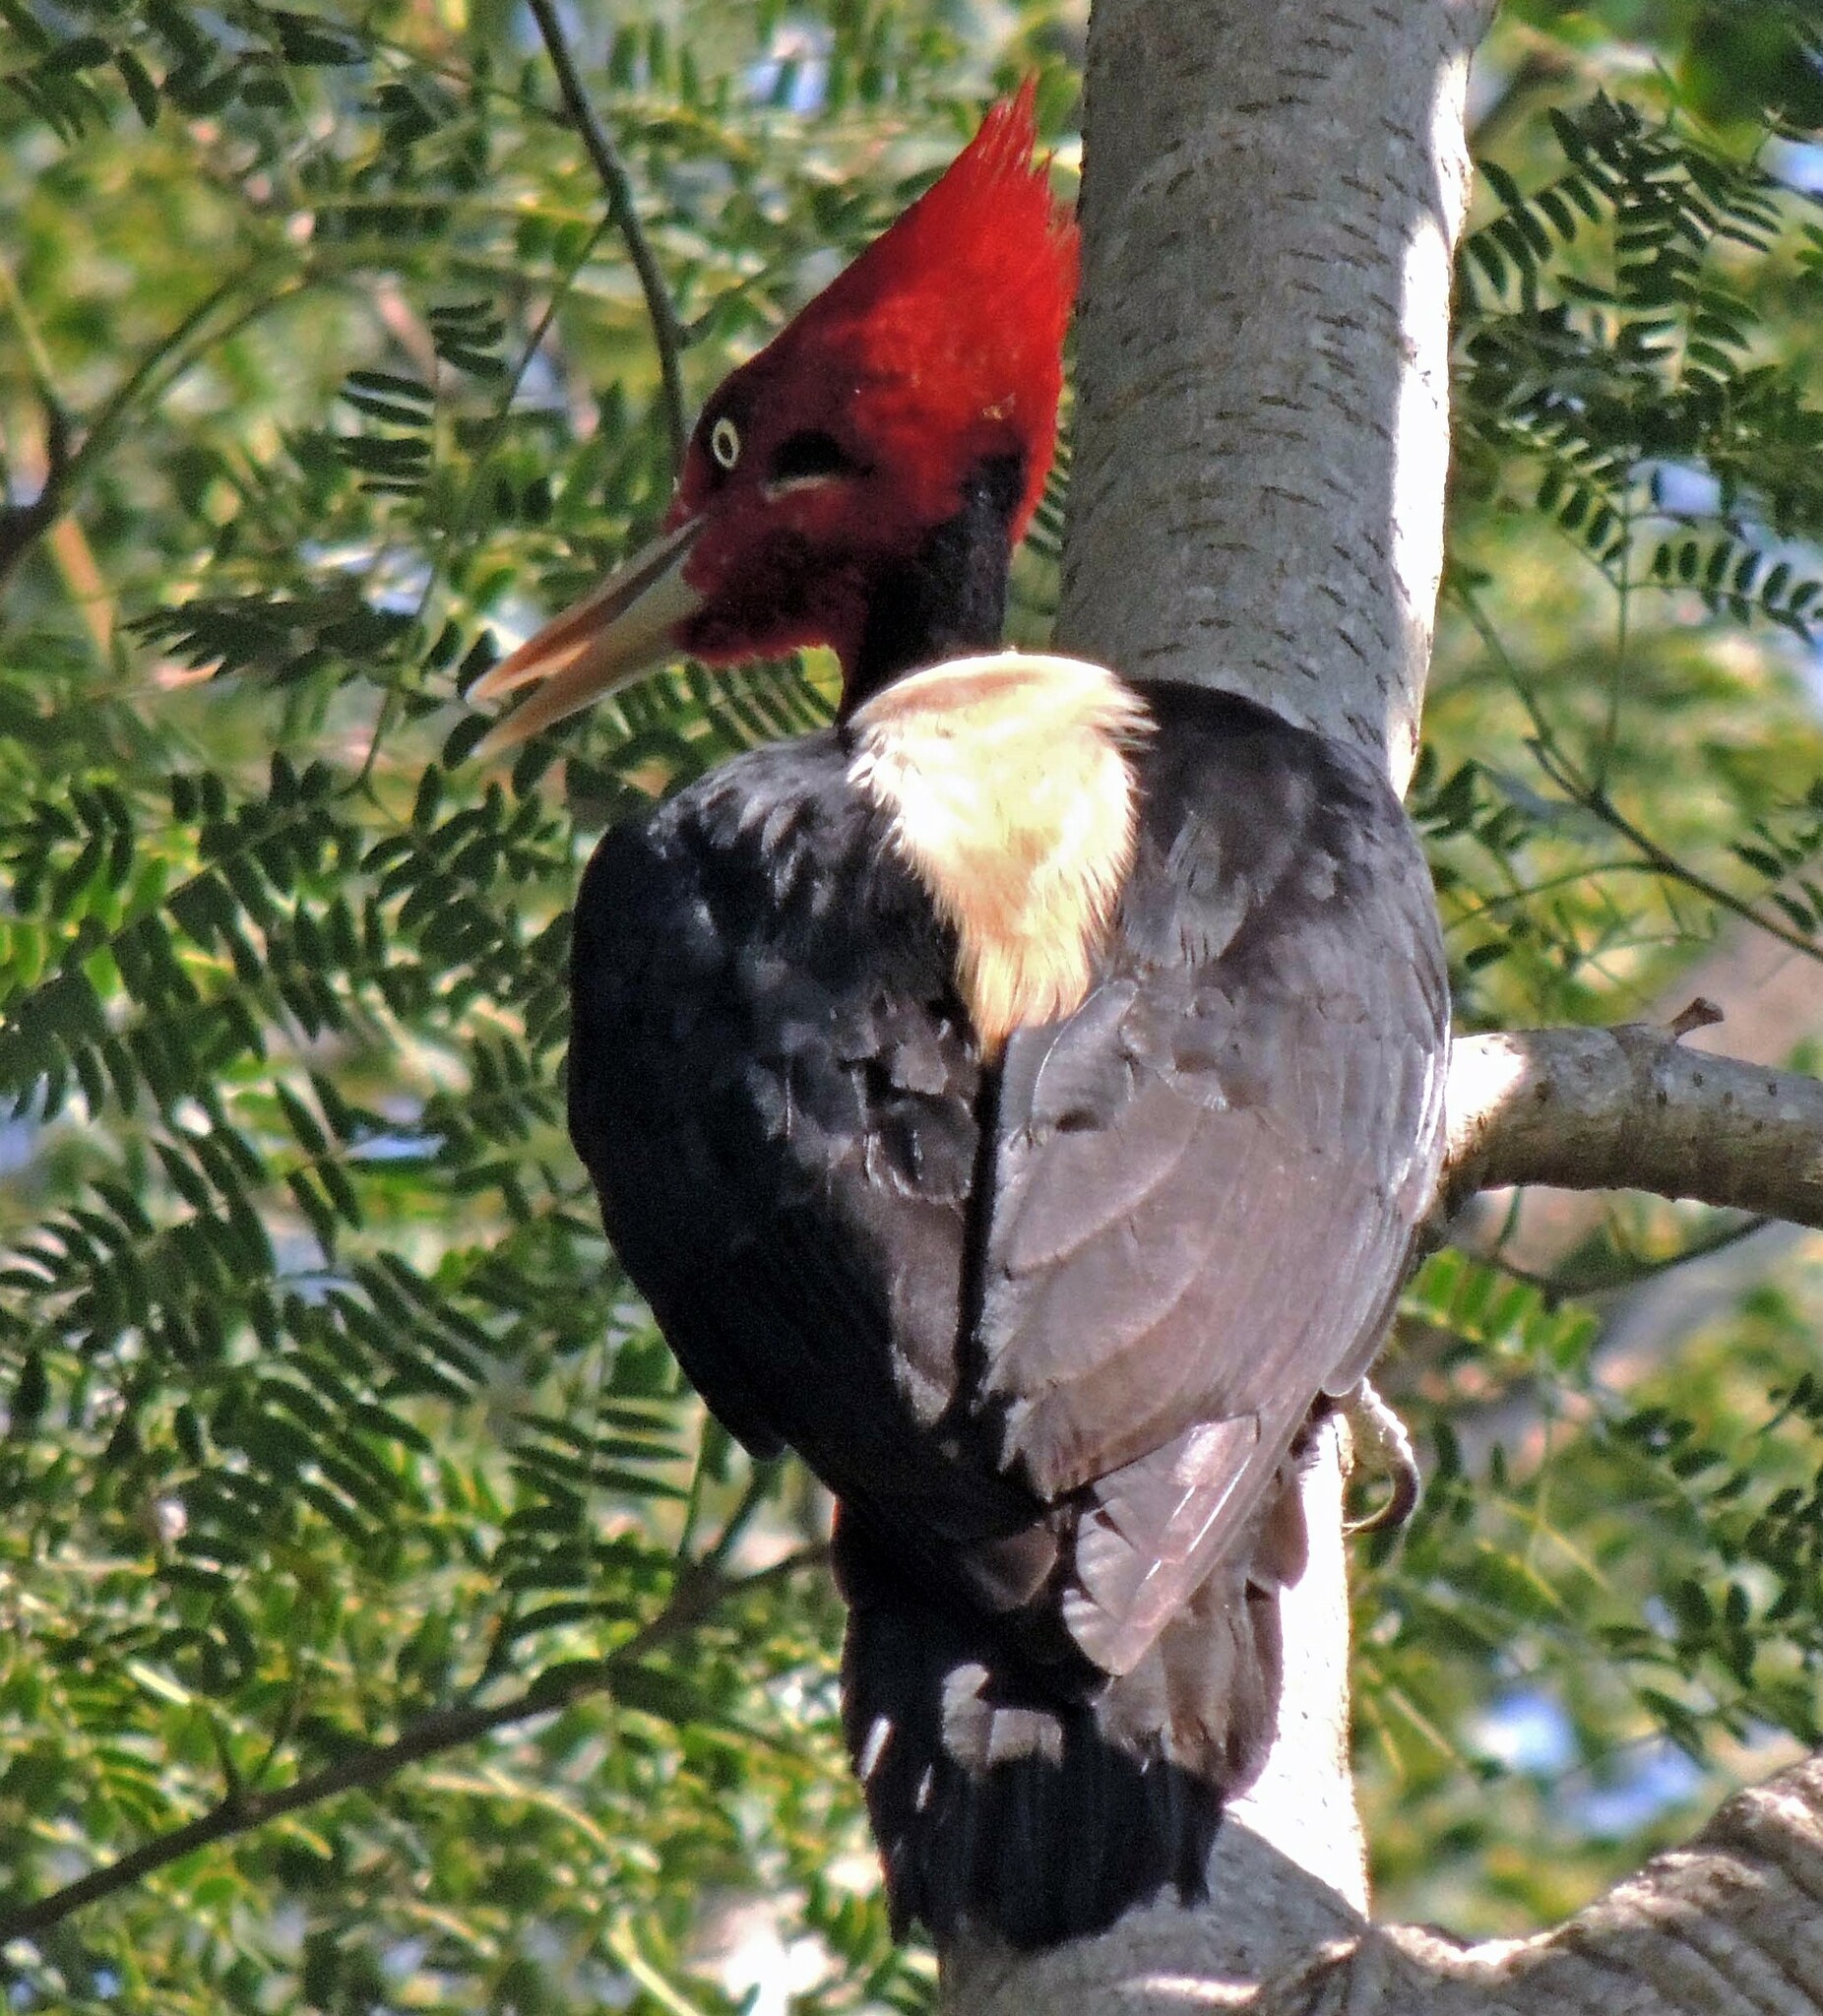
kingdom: Animalia
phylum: Chordata
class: Aves
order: Piciformes
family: Picidae
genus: Campephilus
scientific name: Campephilus leucopogon
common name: Cream-backed woodpecker
